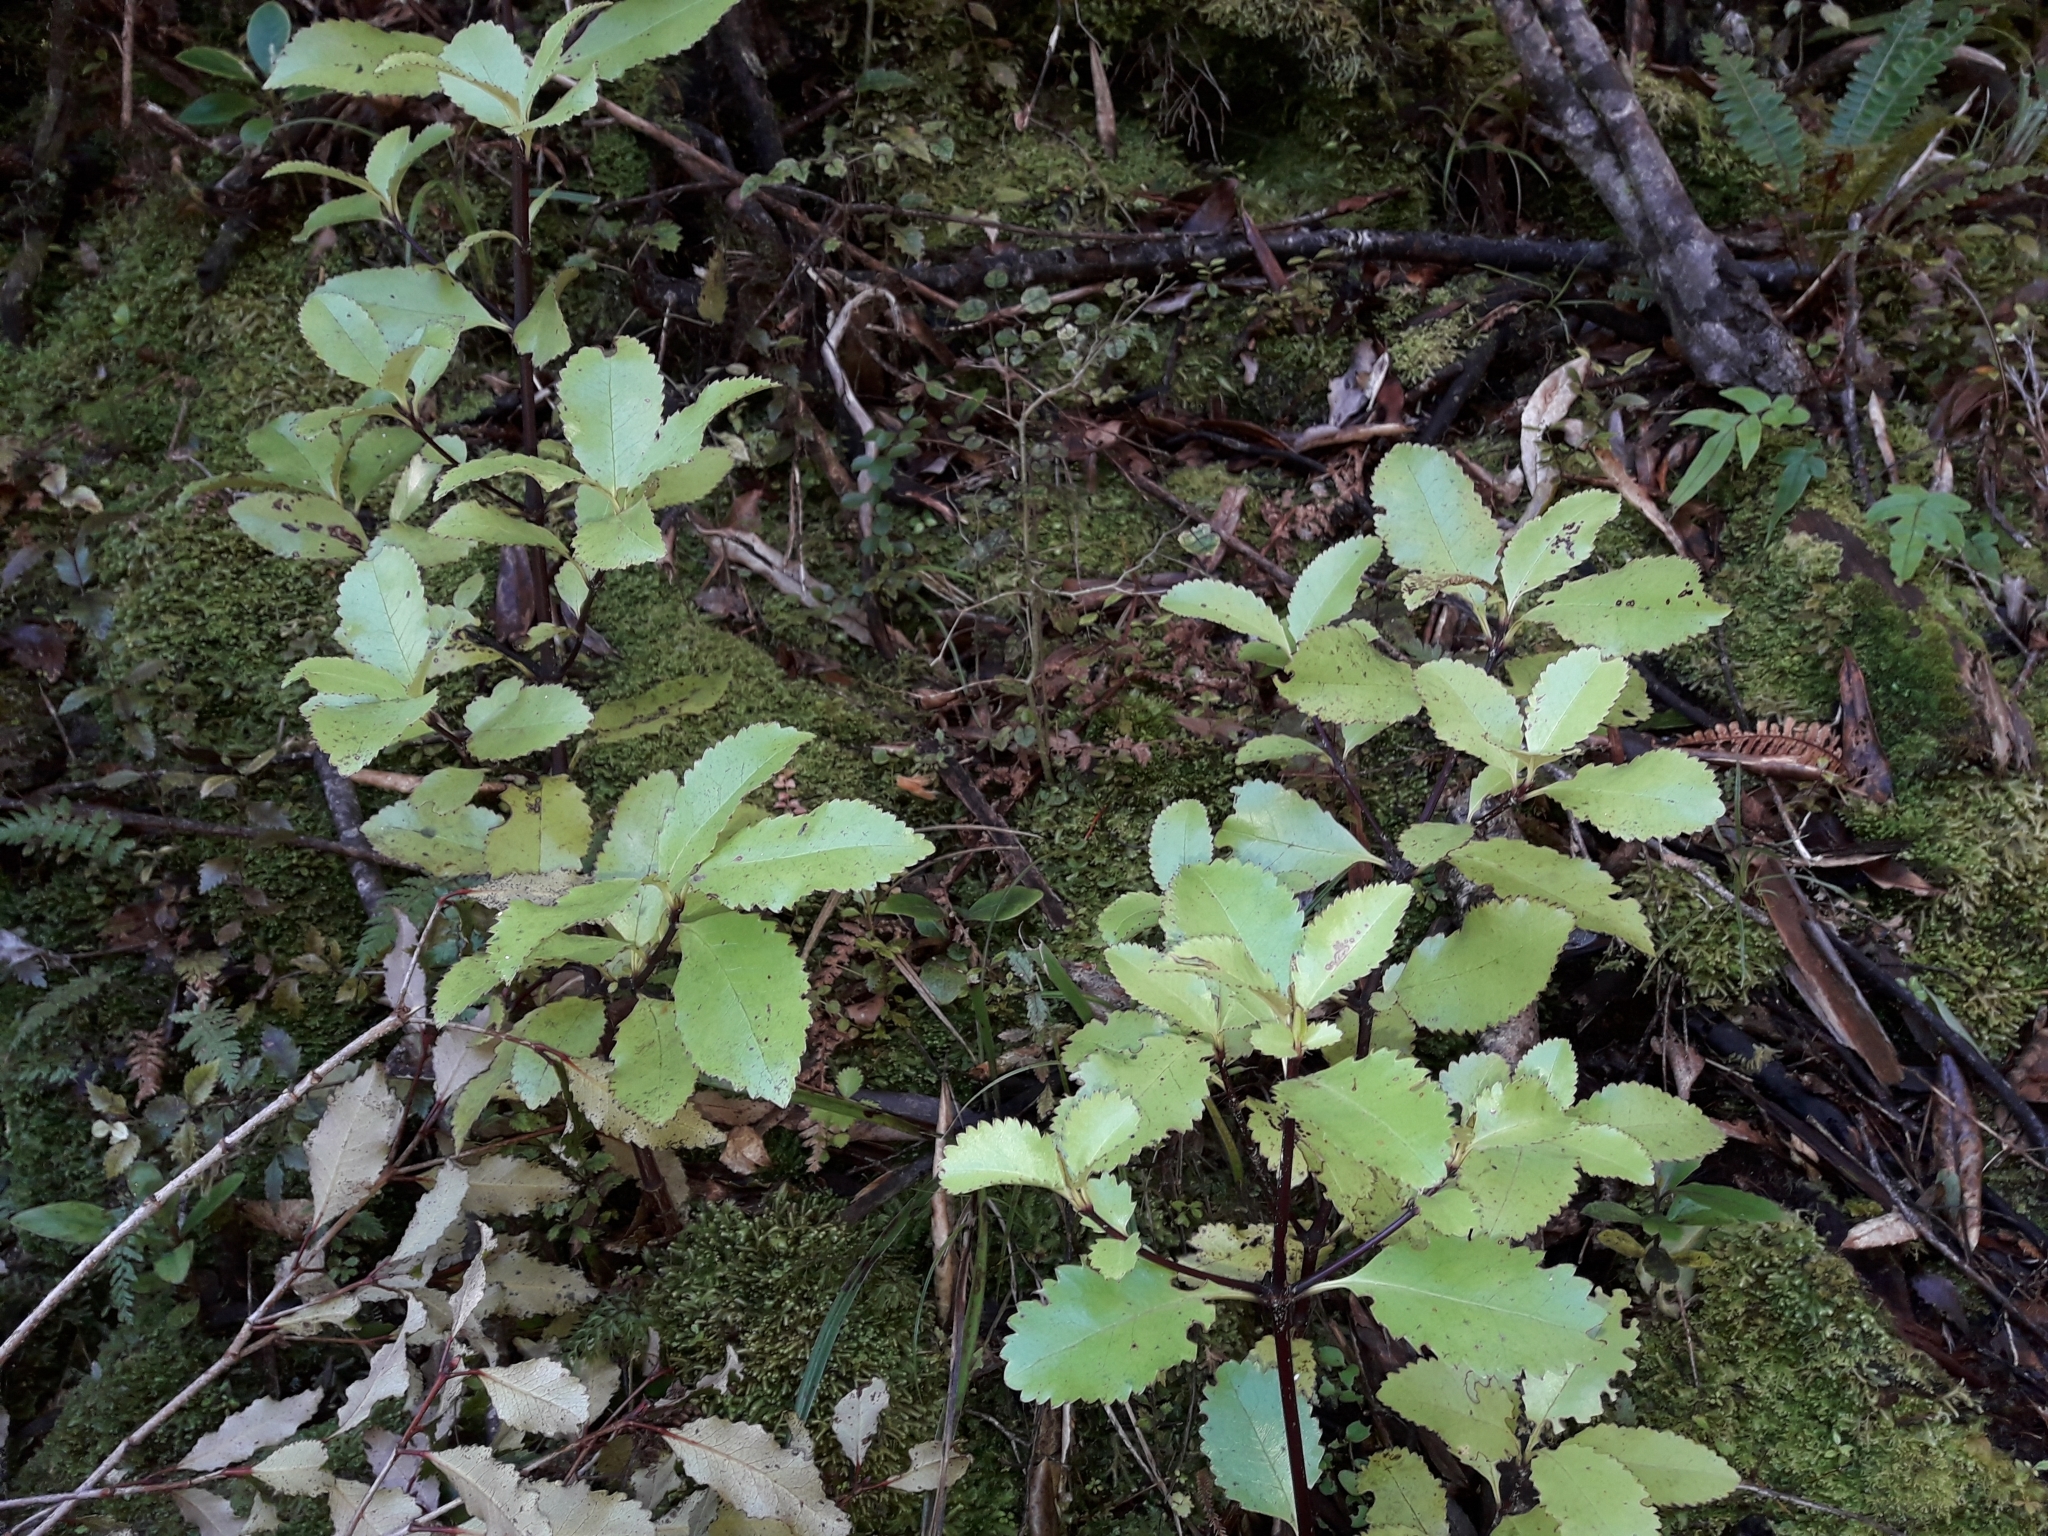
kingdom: Plantae
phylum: Tracheophyta
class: Magnoliopsida
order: Chloranthales
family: Chloranthaceae
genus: Ascarina
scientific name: Ascarina lucida
